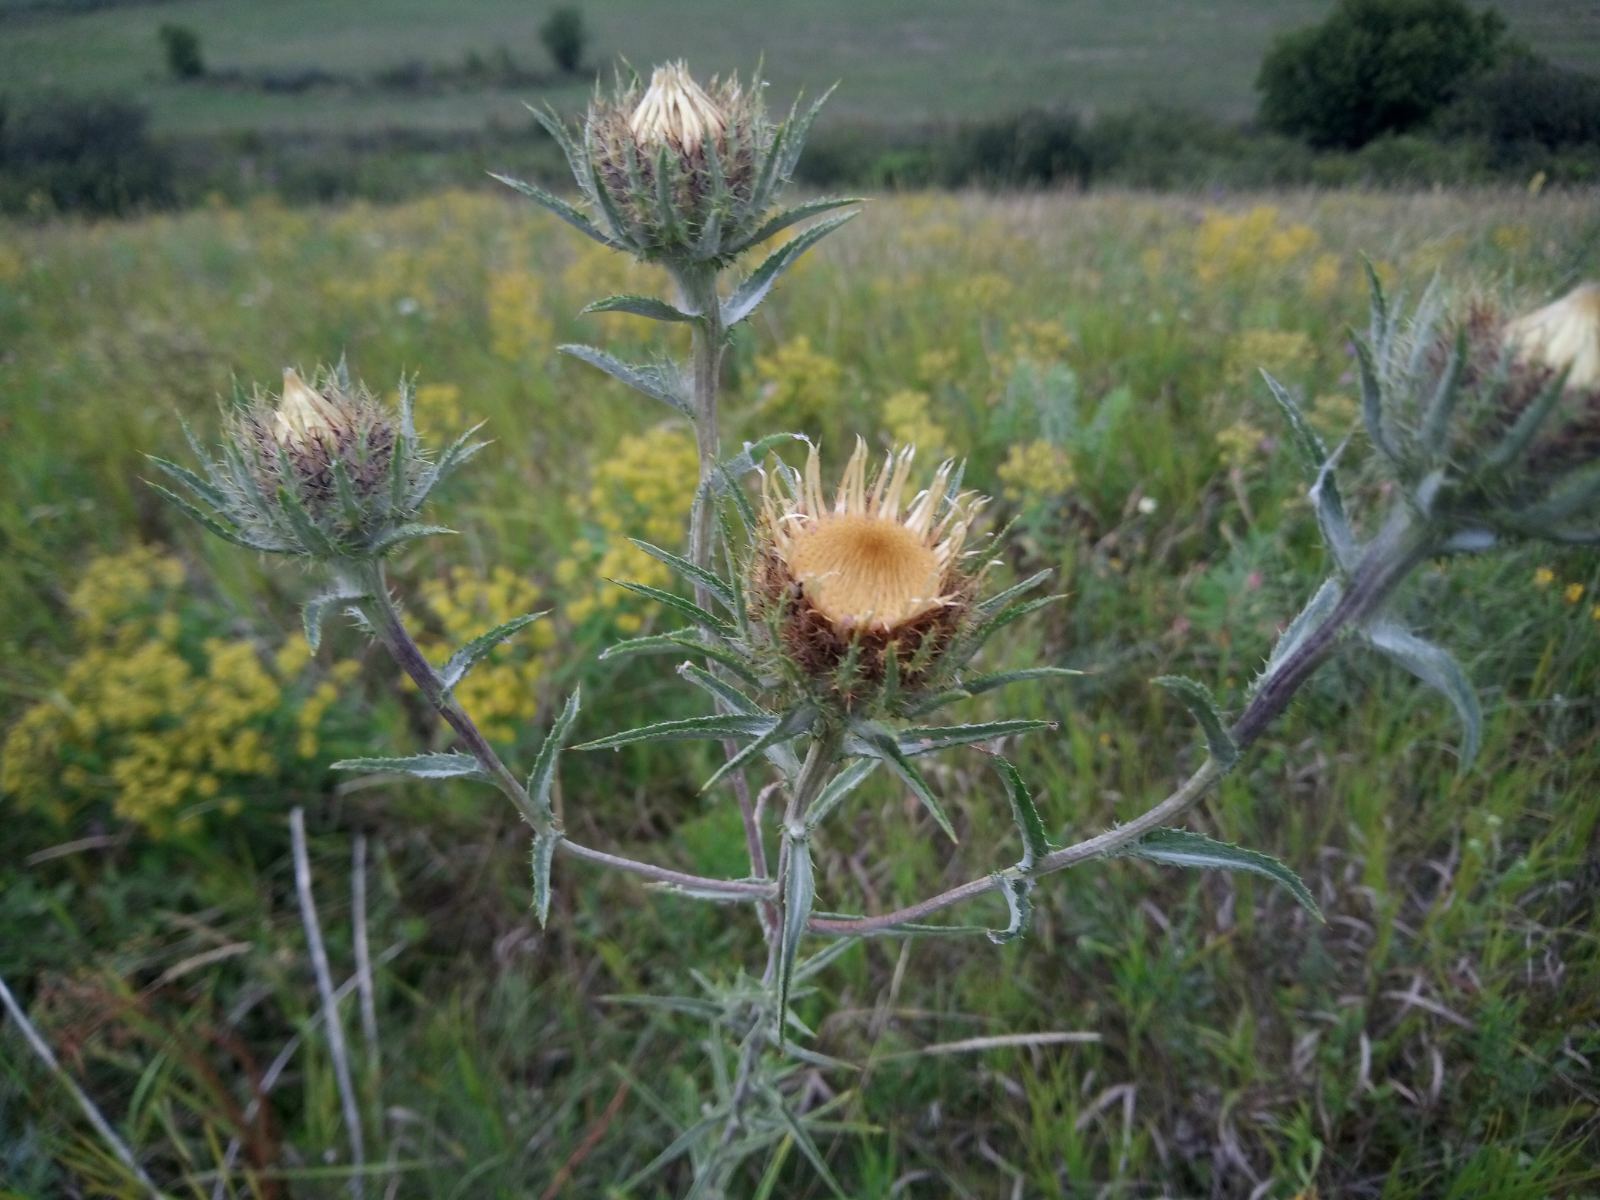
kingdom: Plantae
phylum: Tracheophyta
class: Magnoliopsida
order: Asterales
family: Asteraceae
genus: Carlina
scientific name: Carlina biebersteinii
